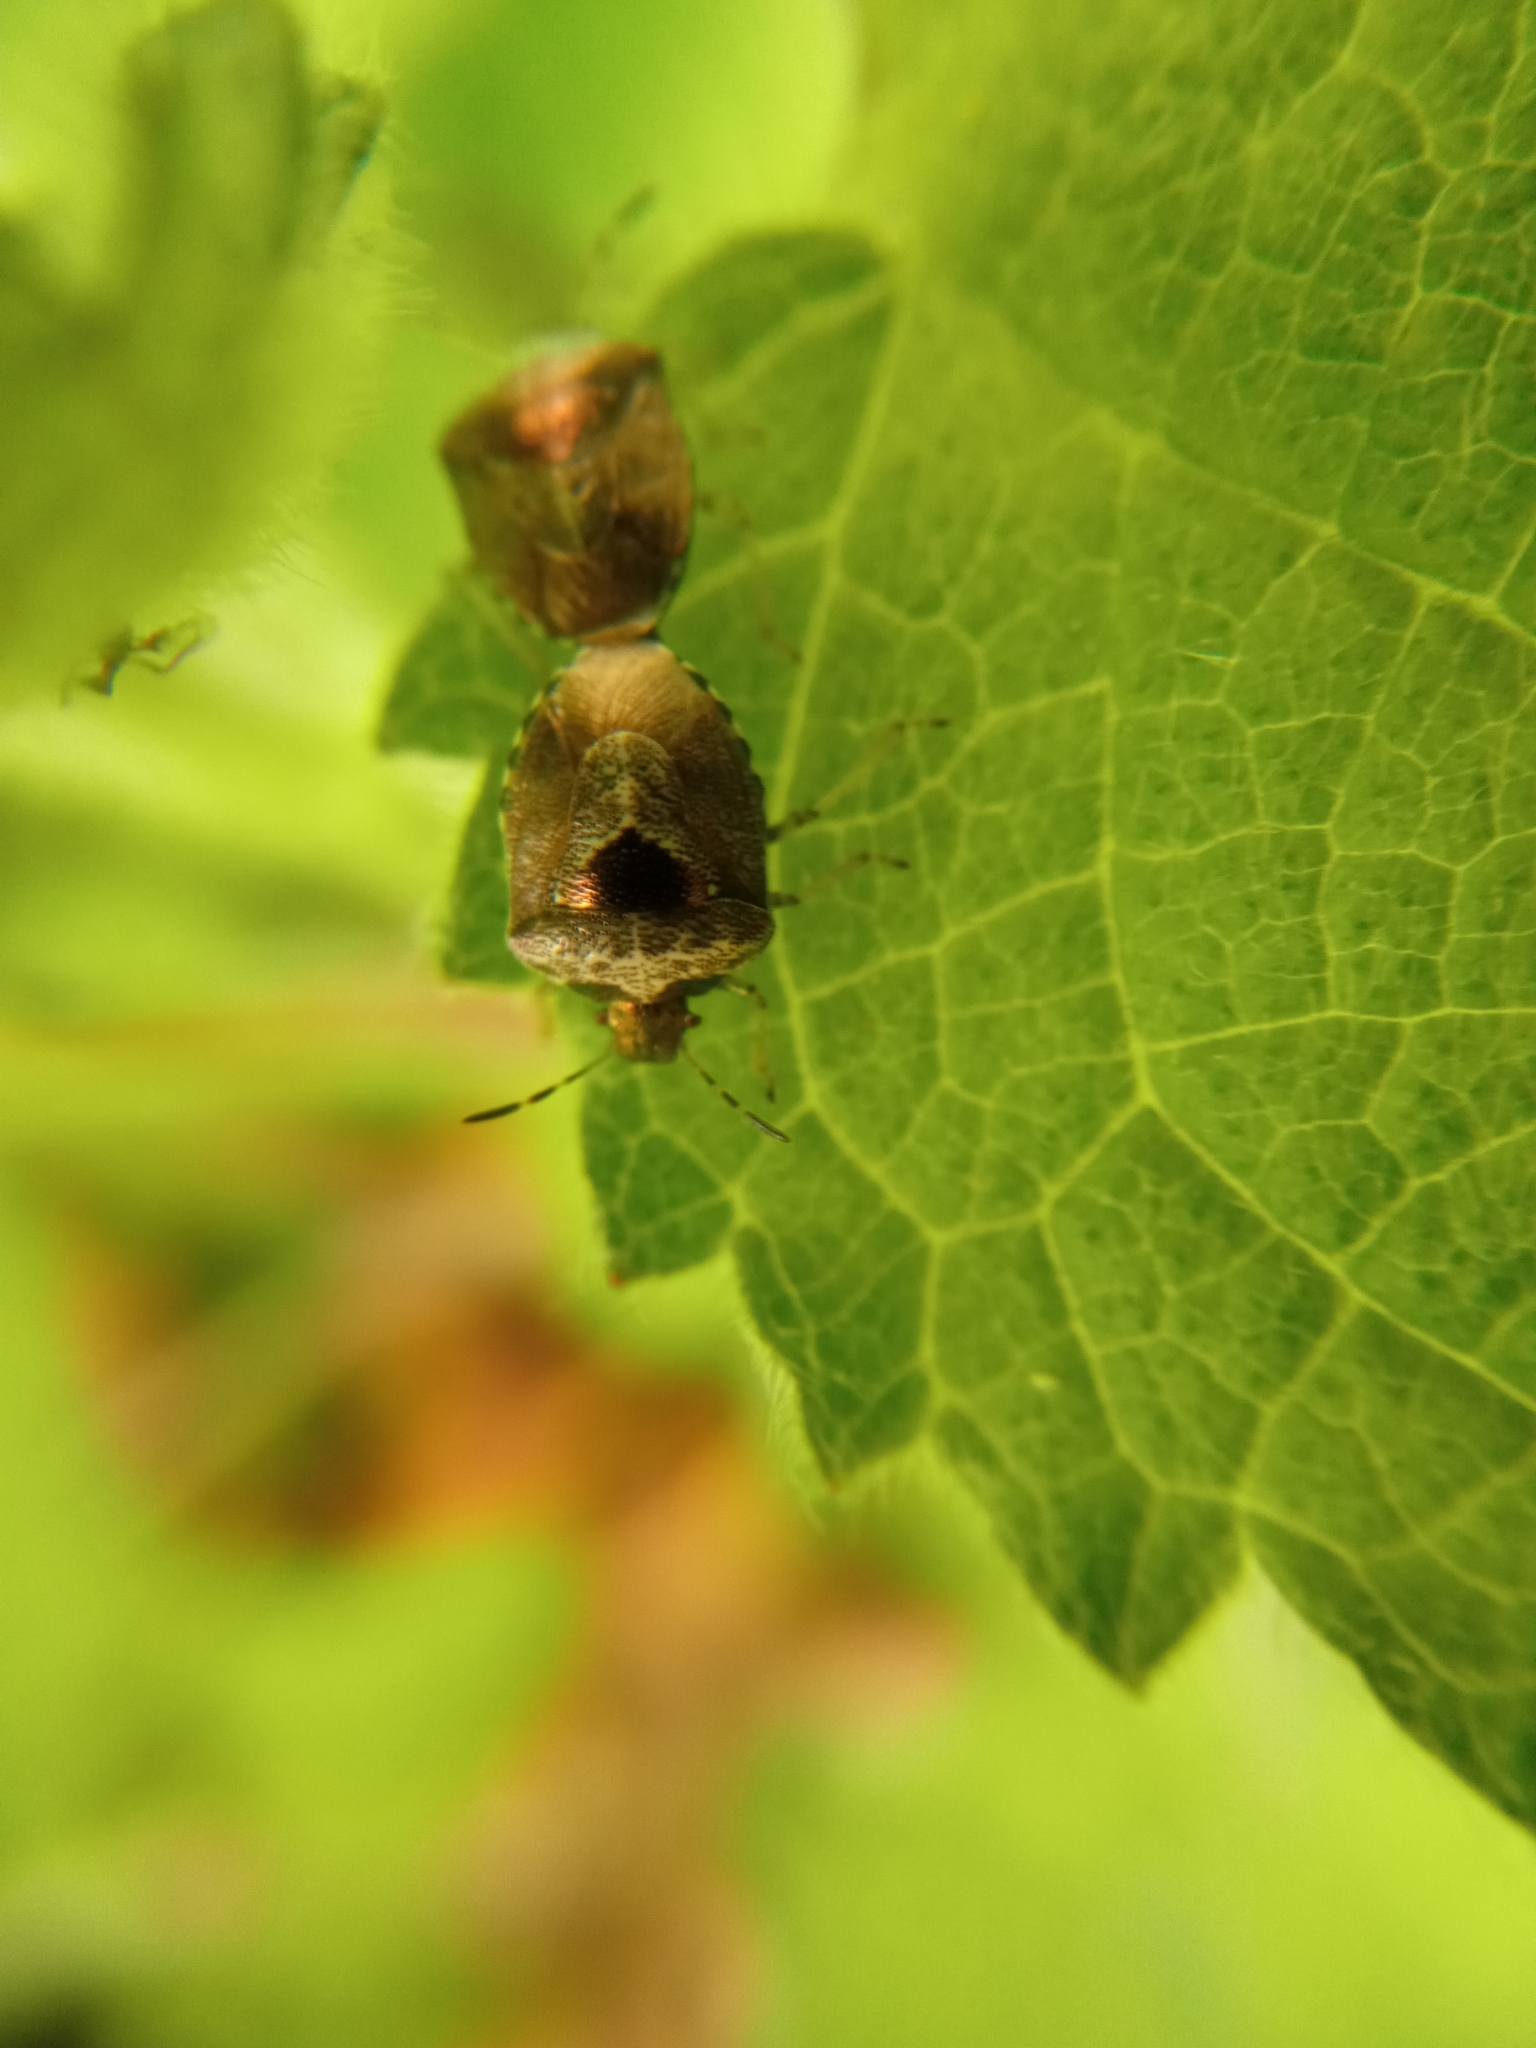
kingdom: Animalia
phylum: Arthropoda
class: Insecta
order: Hemiptera
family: Pentatomidae
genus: Eysarcoris
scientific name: Eysarcoris venustissimus
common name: Woundwort shieldbug
